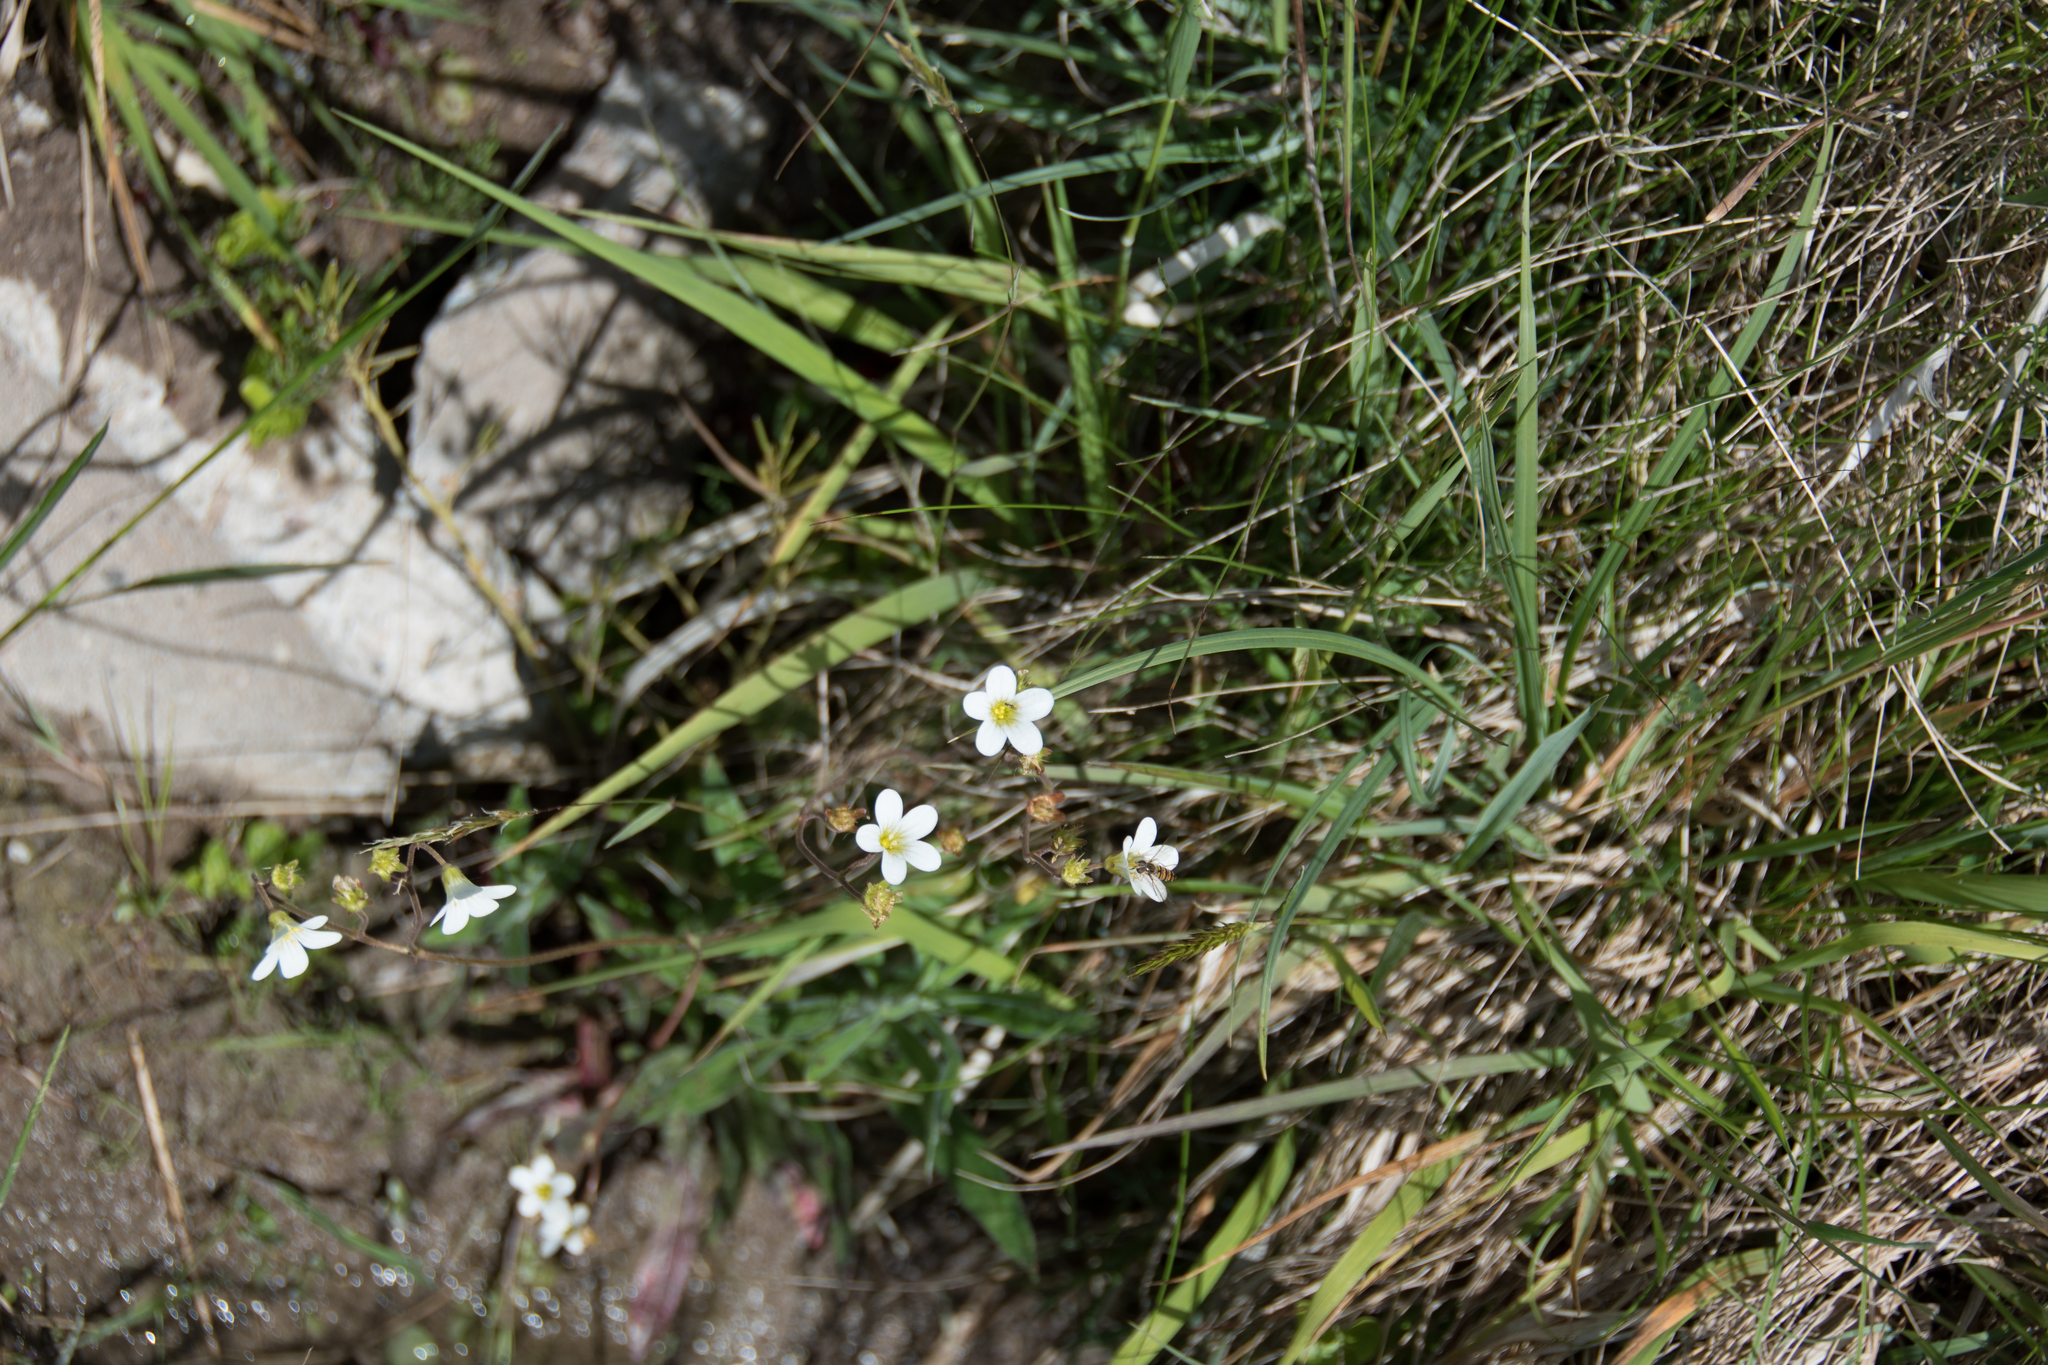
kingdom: Plantae
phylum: Tracheophyta
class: Magnoliopsida
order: Saxifragales
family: Saxifragaceae
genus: Saxifraga
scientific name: Saxifraga granulata
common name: Meadow saxifrage
